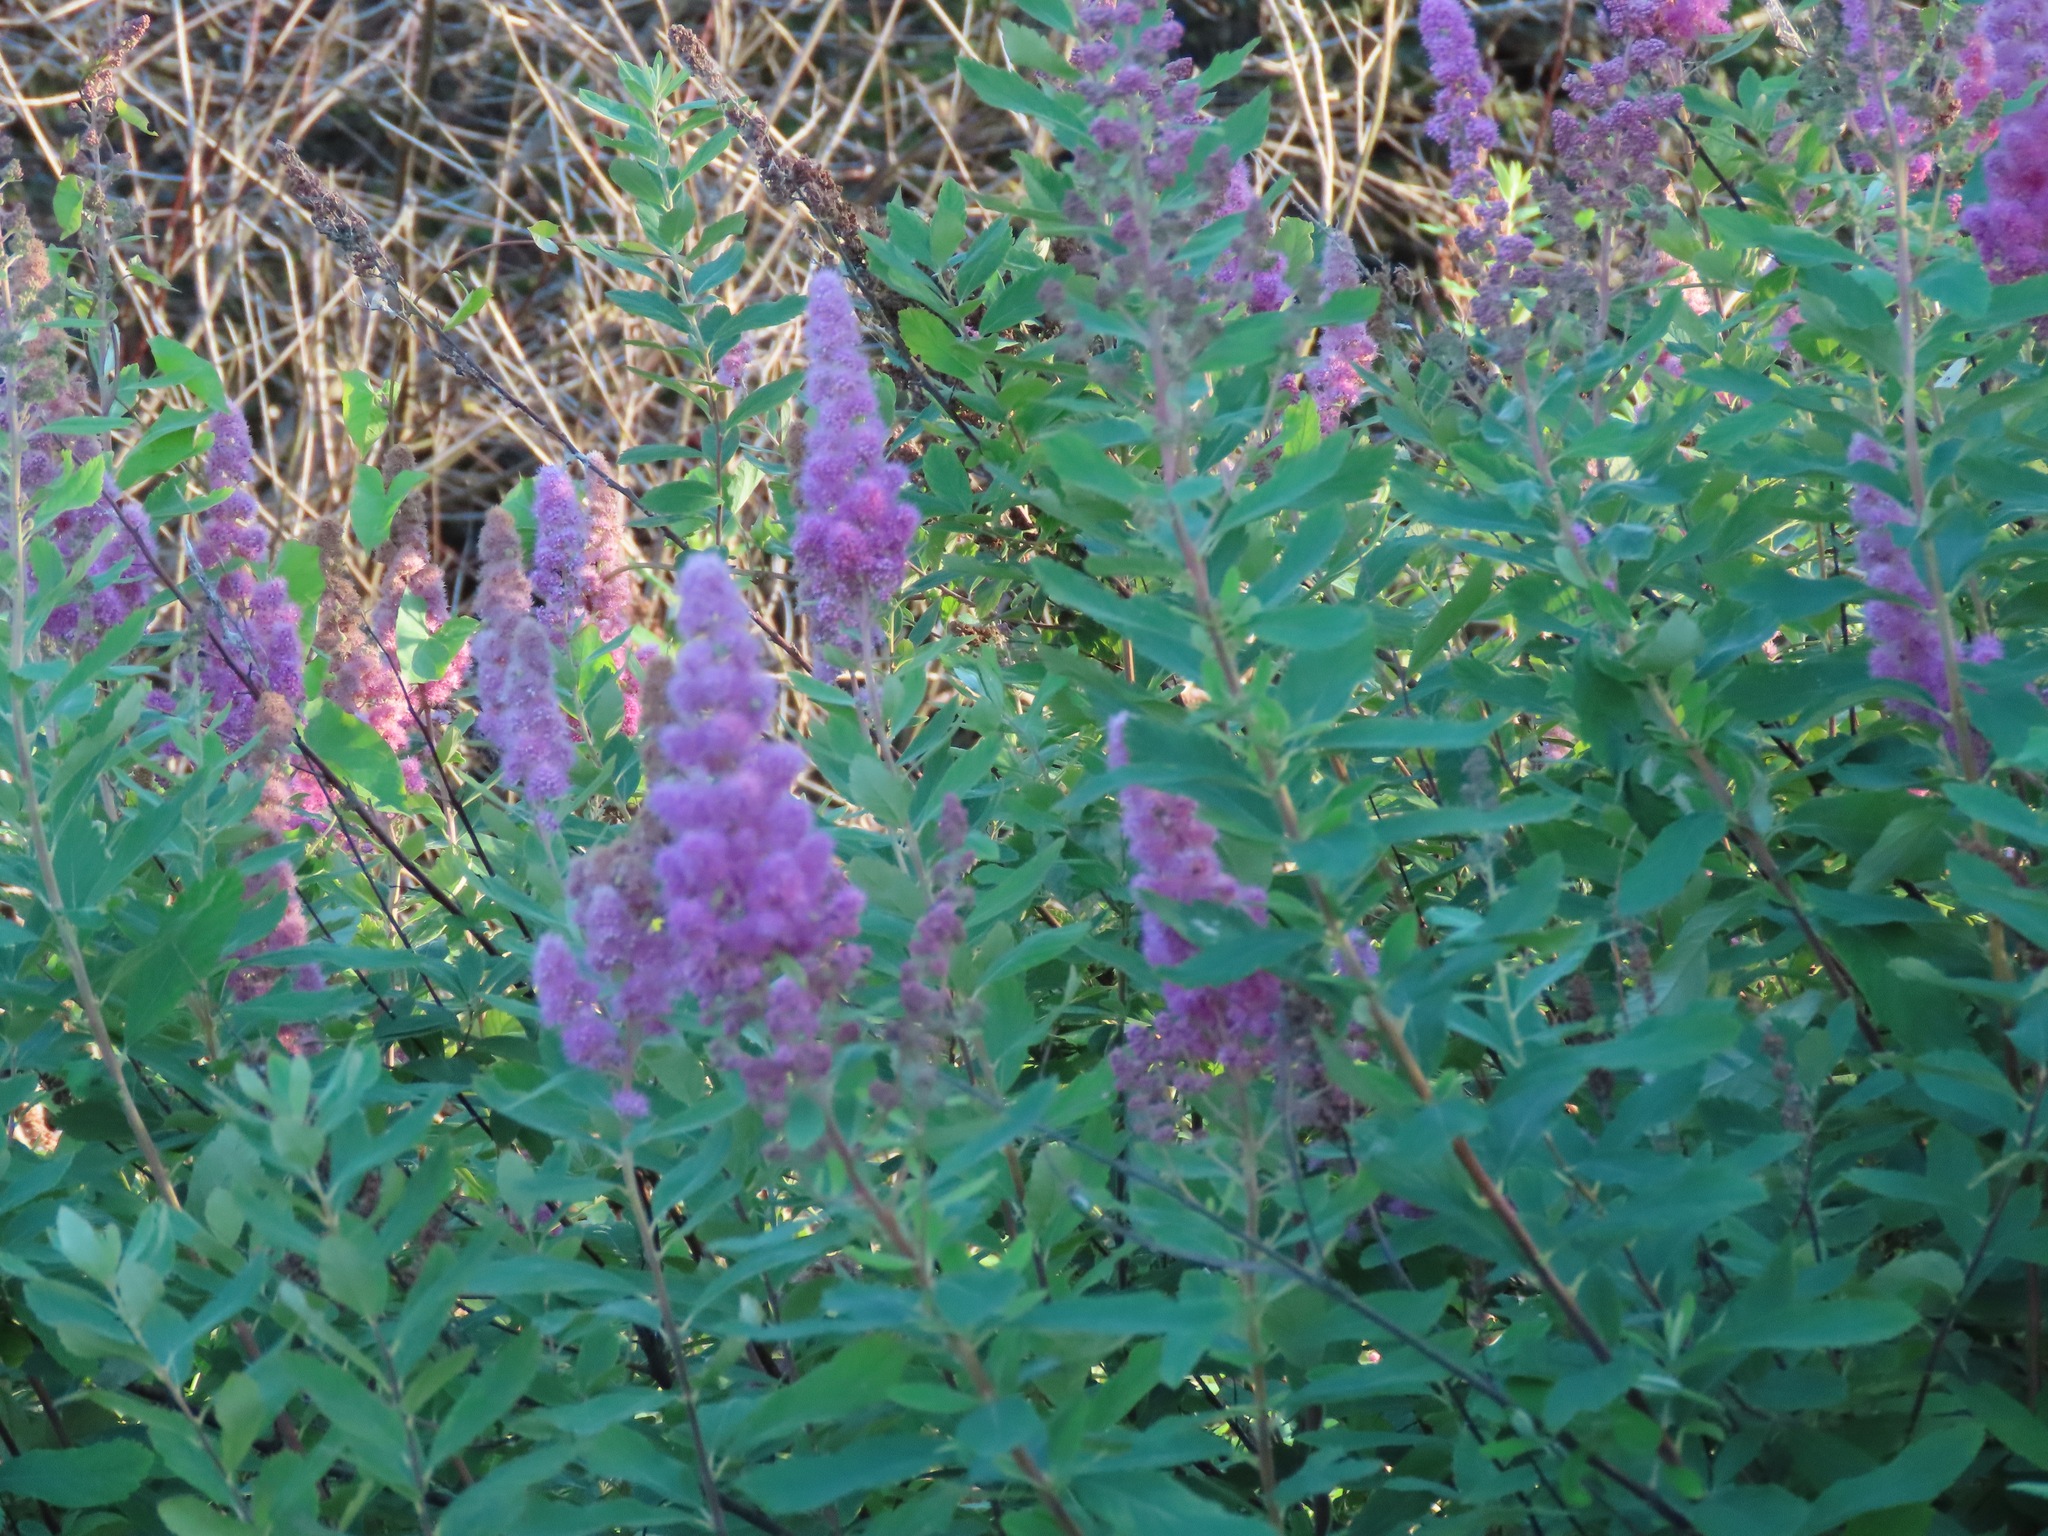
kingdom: Plantae
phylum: Tracheophyta
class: Magnoliopsida
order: Rosales
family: Rosaceae
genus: Spiraea
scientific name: Spiraea douglasii
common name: Steeplebush
